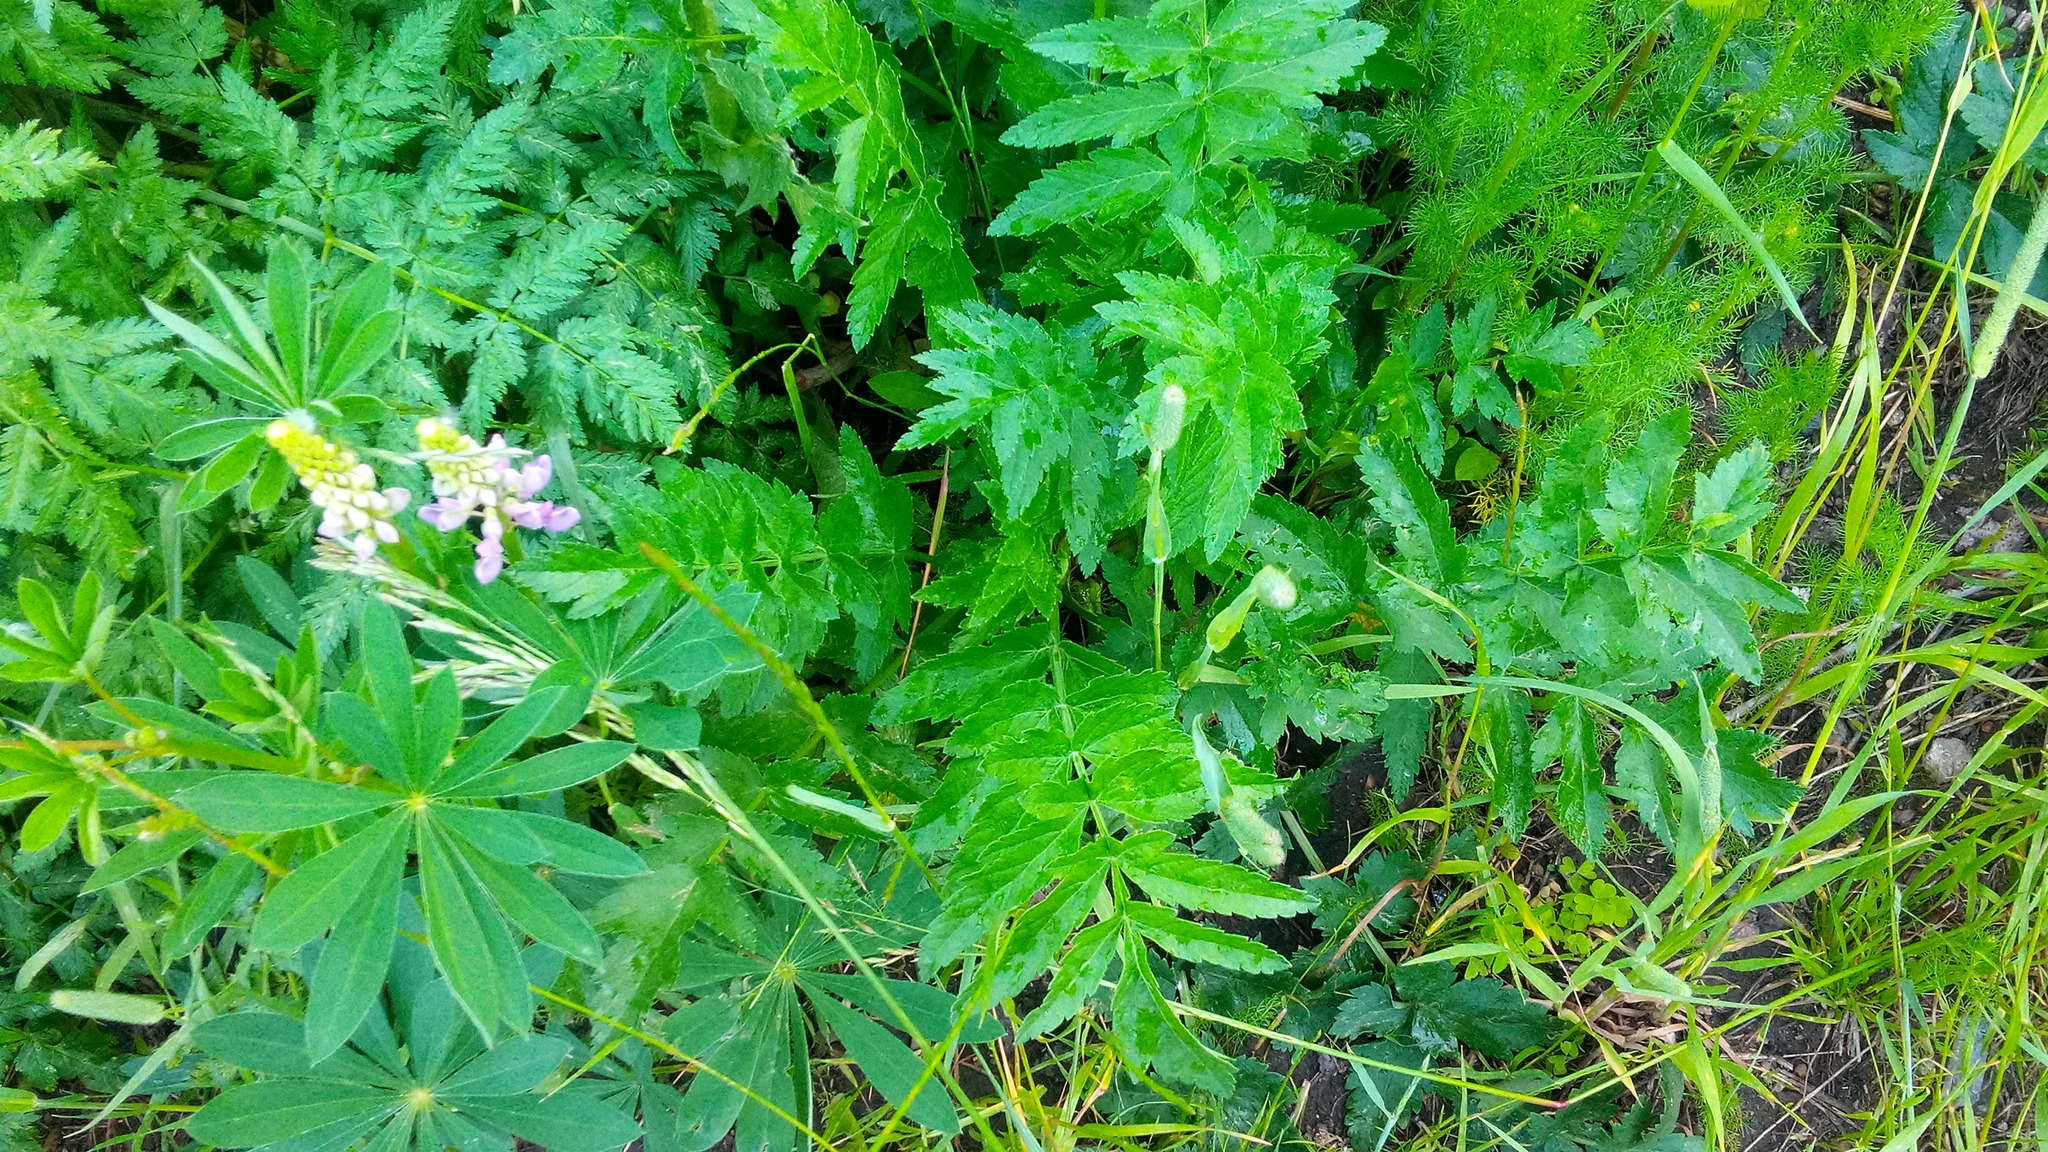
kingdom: Plantae
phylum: Tracheophyta
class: Magnoliopsida
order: Apiales
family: Apiaceae
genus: Pastinaca
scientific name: Pastinaca sativa
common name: Wild parsnip
